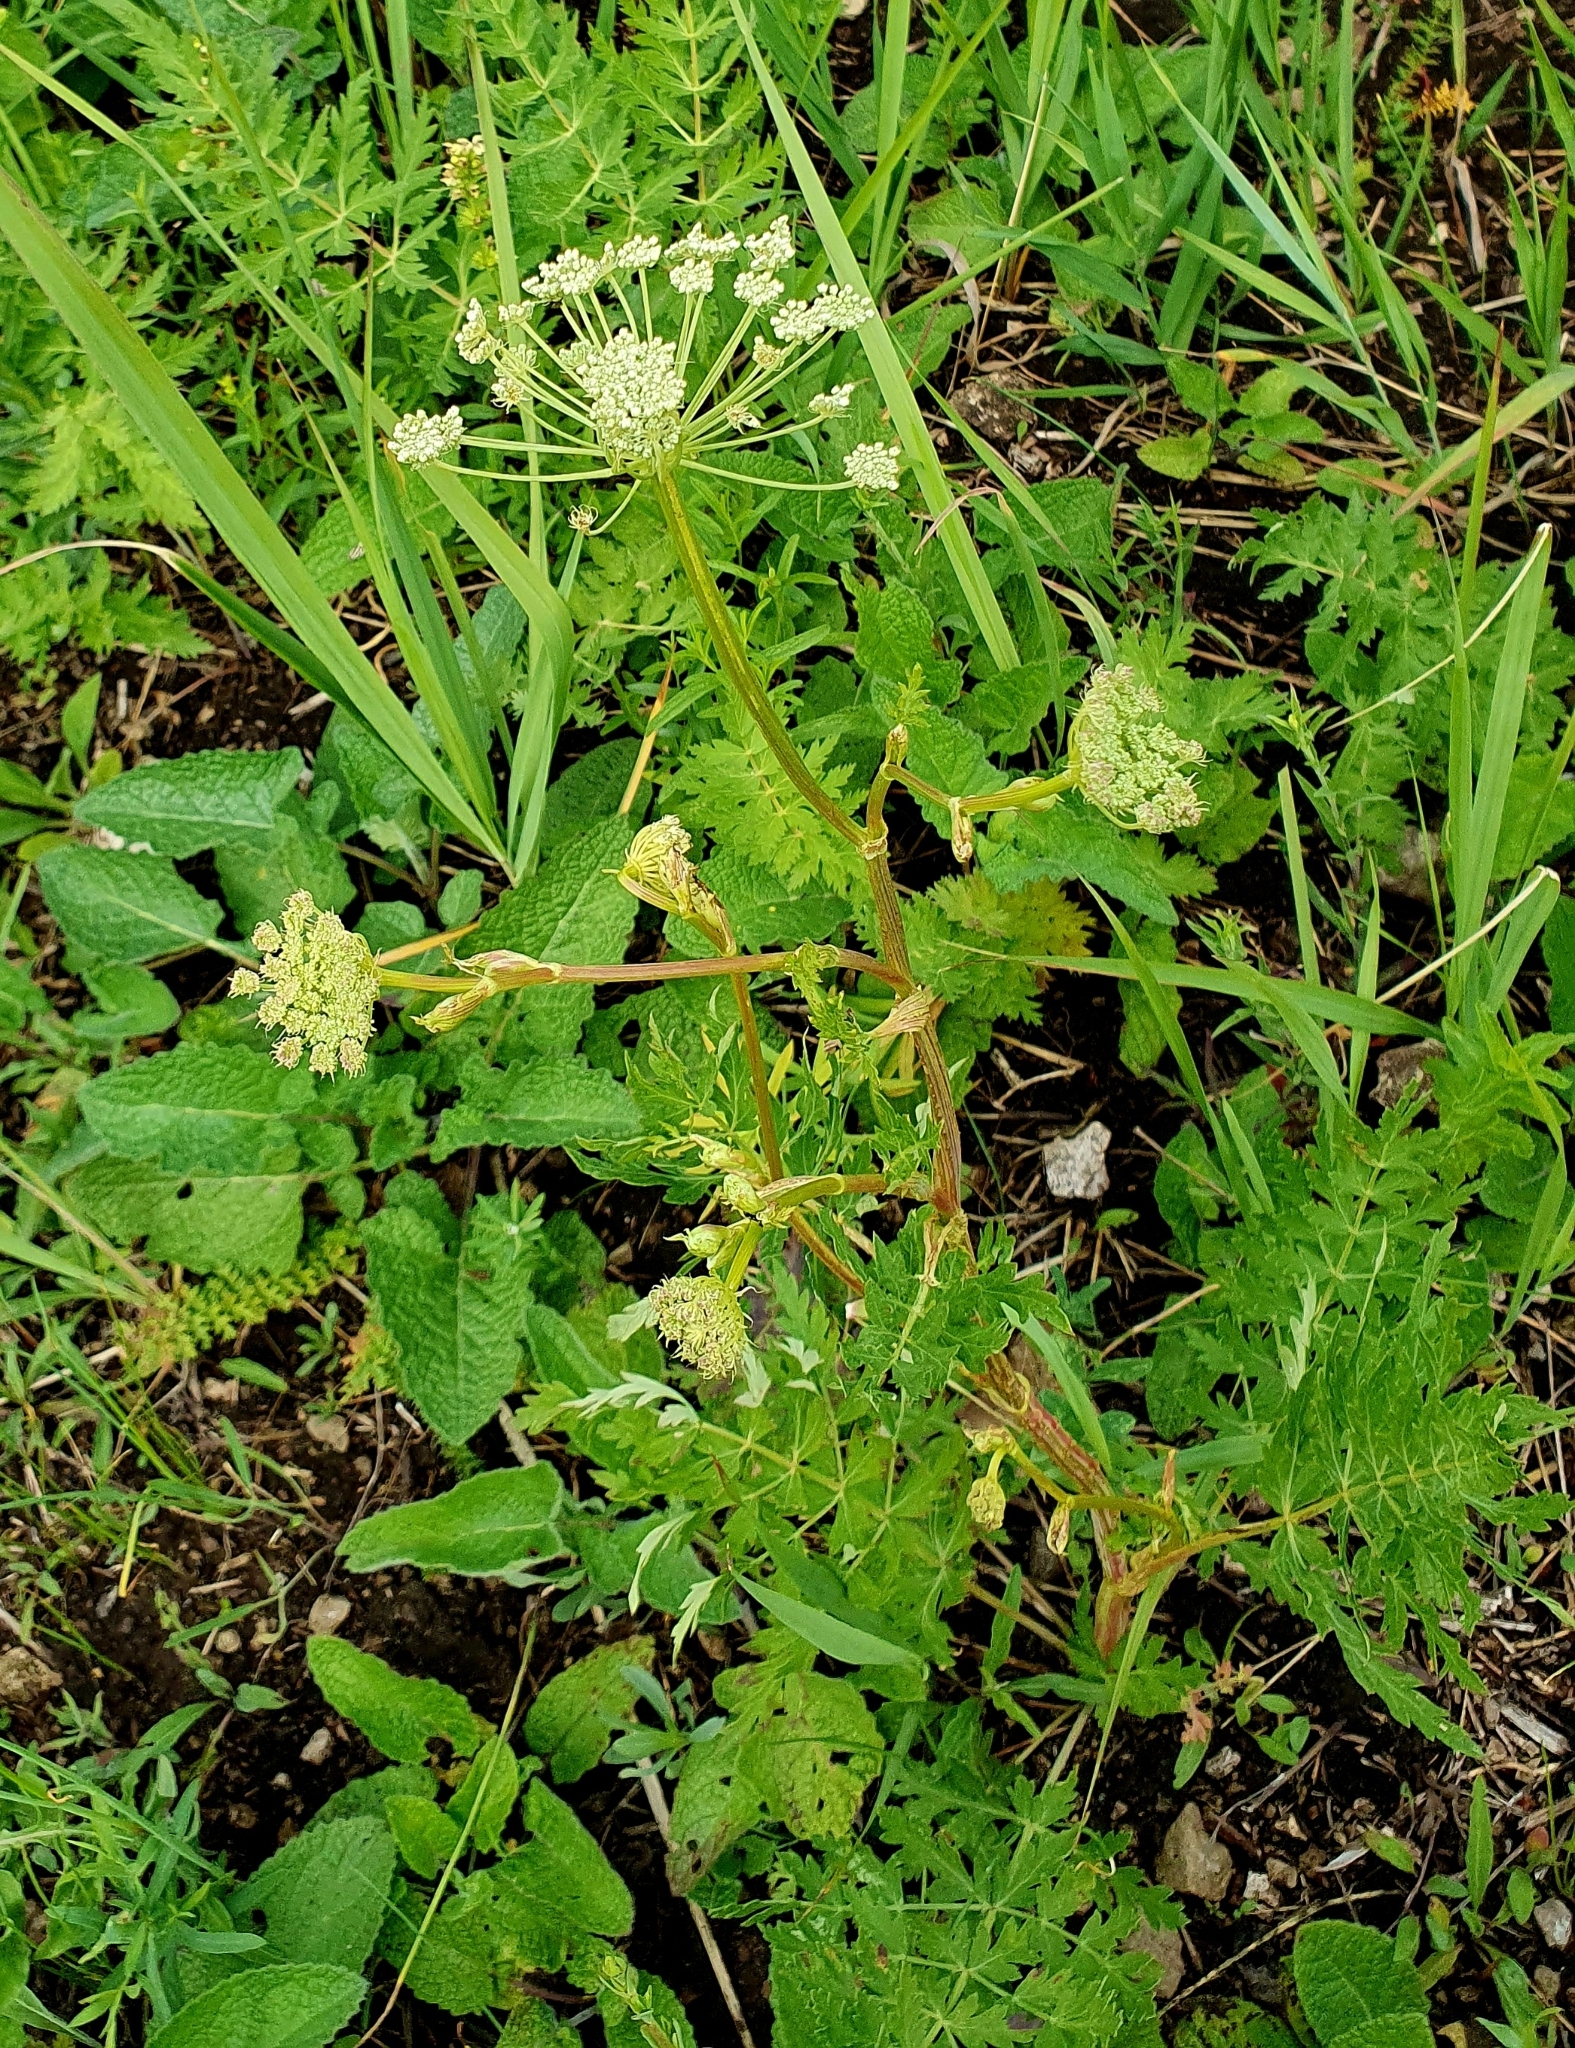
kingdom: Plantae
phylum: Tracheophyta
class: Magnoliopsida
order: Apiales
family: Apiaceae
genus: Seseli
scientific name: Seseli libanotis
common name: Mooncarrot
